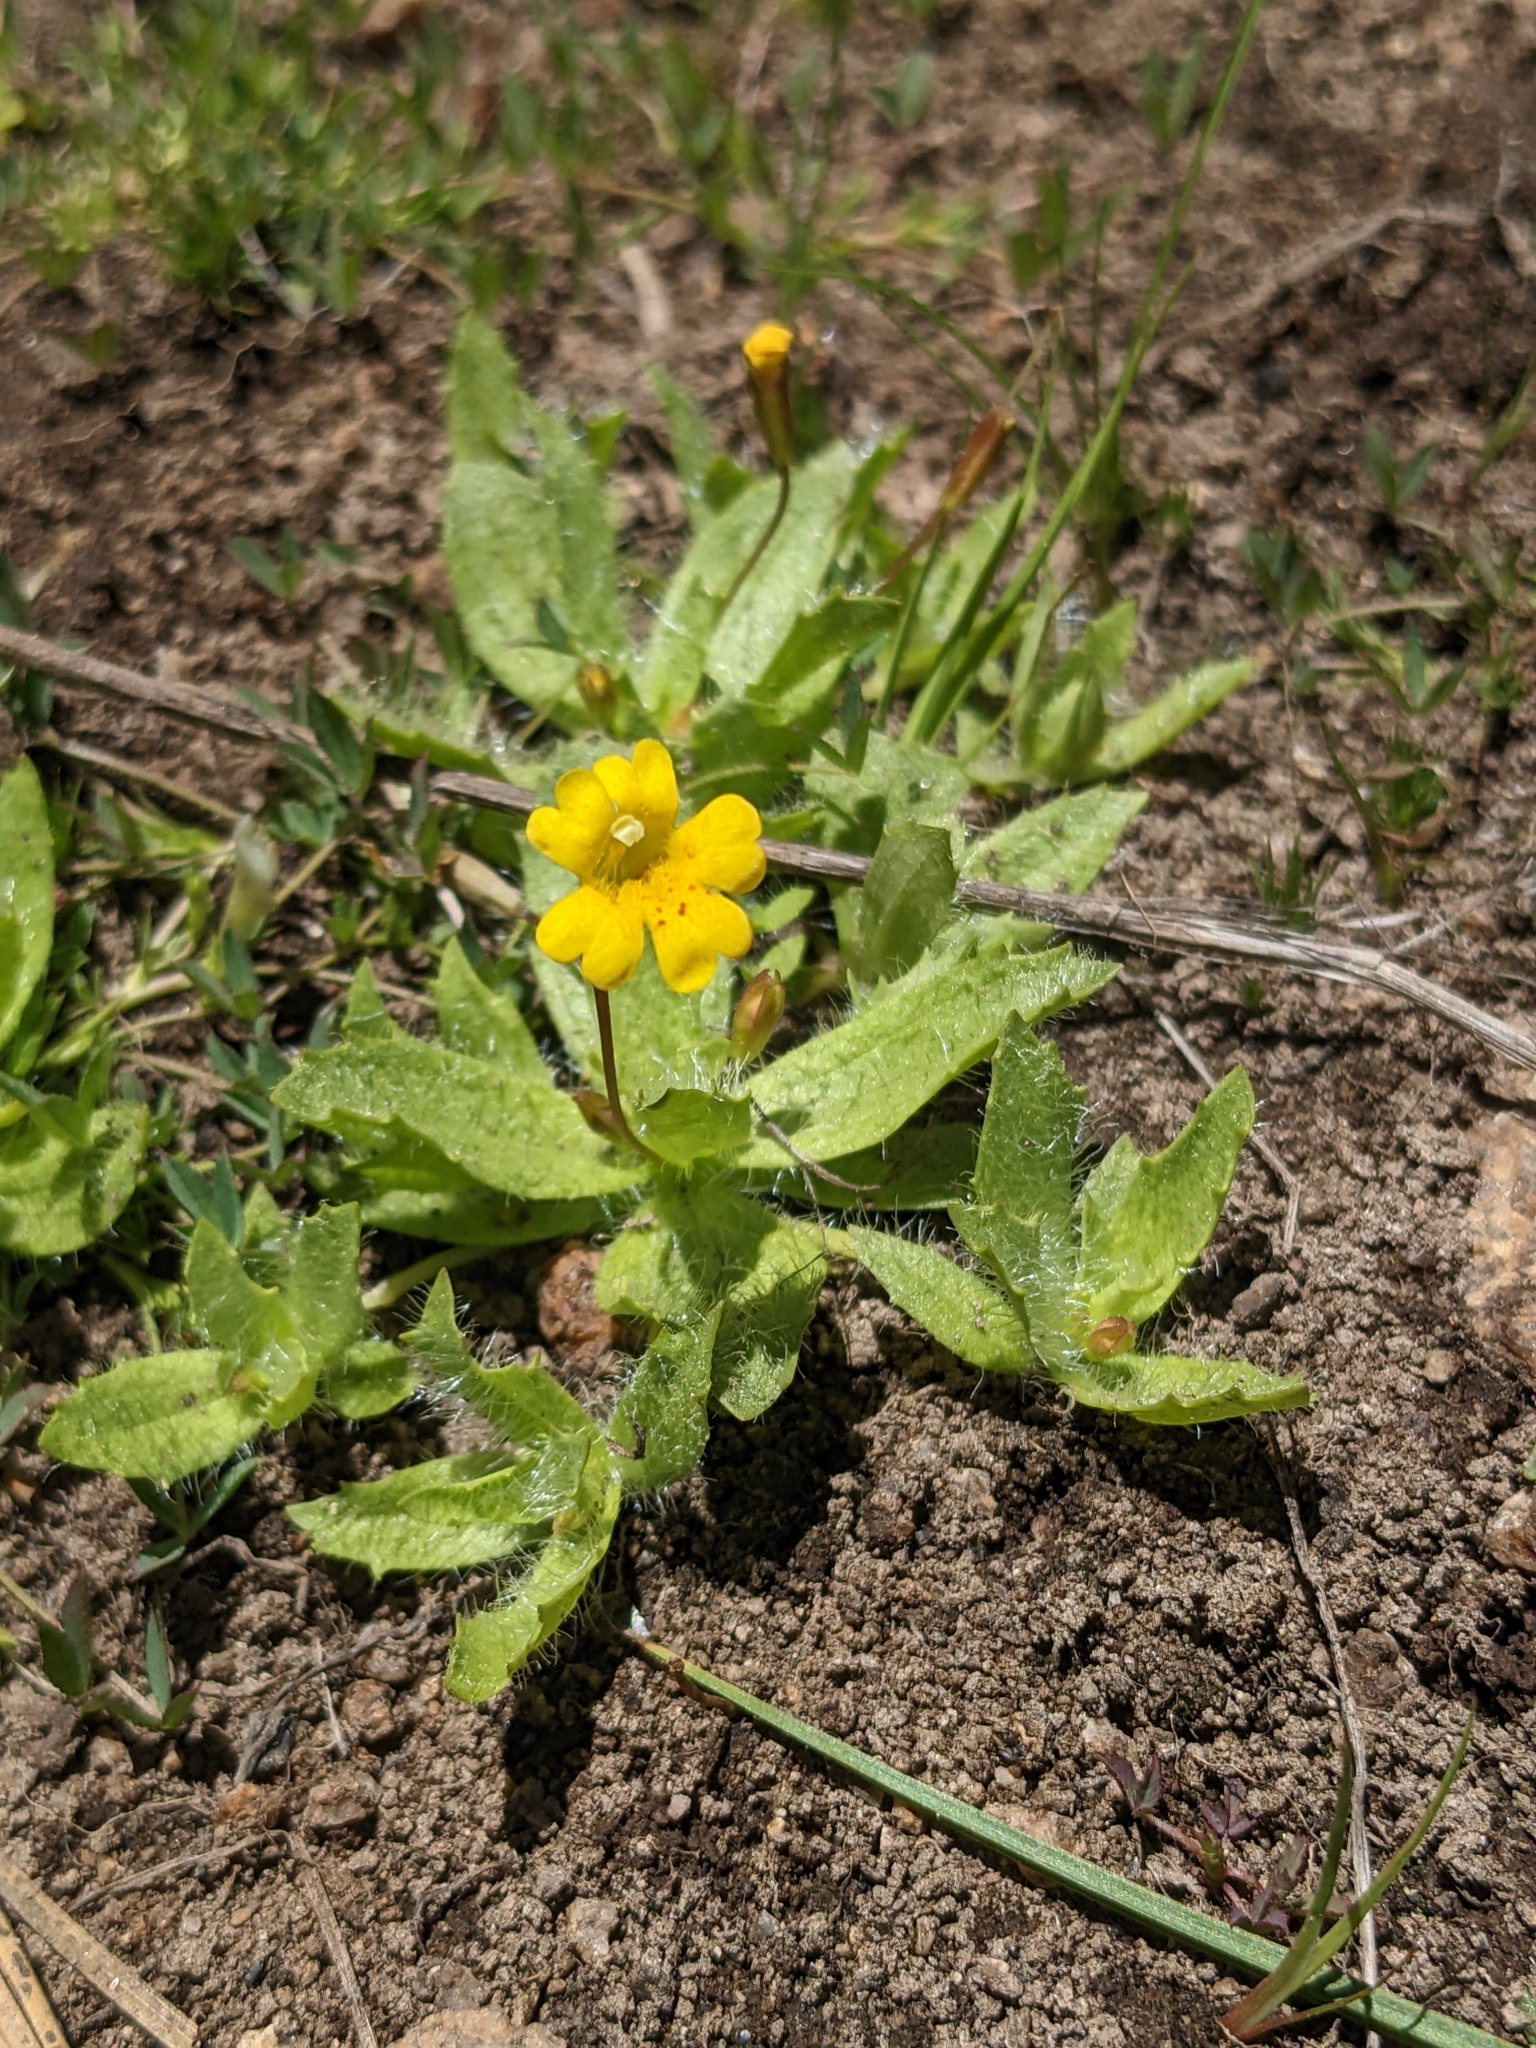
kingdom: Plantae
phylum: Tracheophyta
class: Magnoliopsida
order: Lamiales
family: Phrymaceae
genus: Erythranthe
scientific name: Erythranthe primuloides
